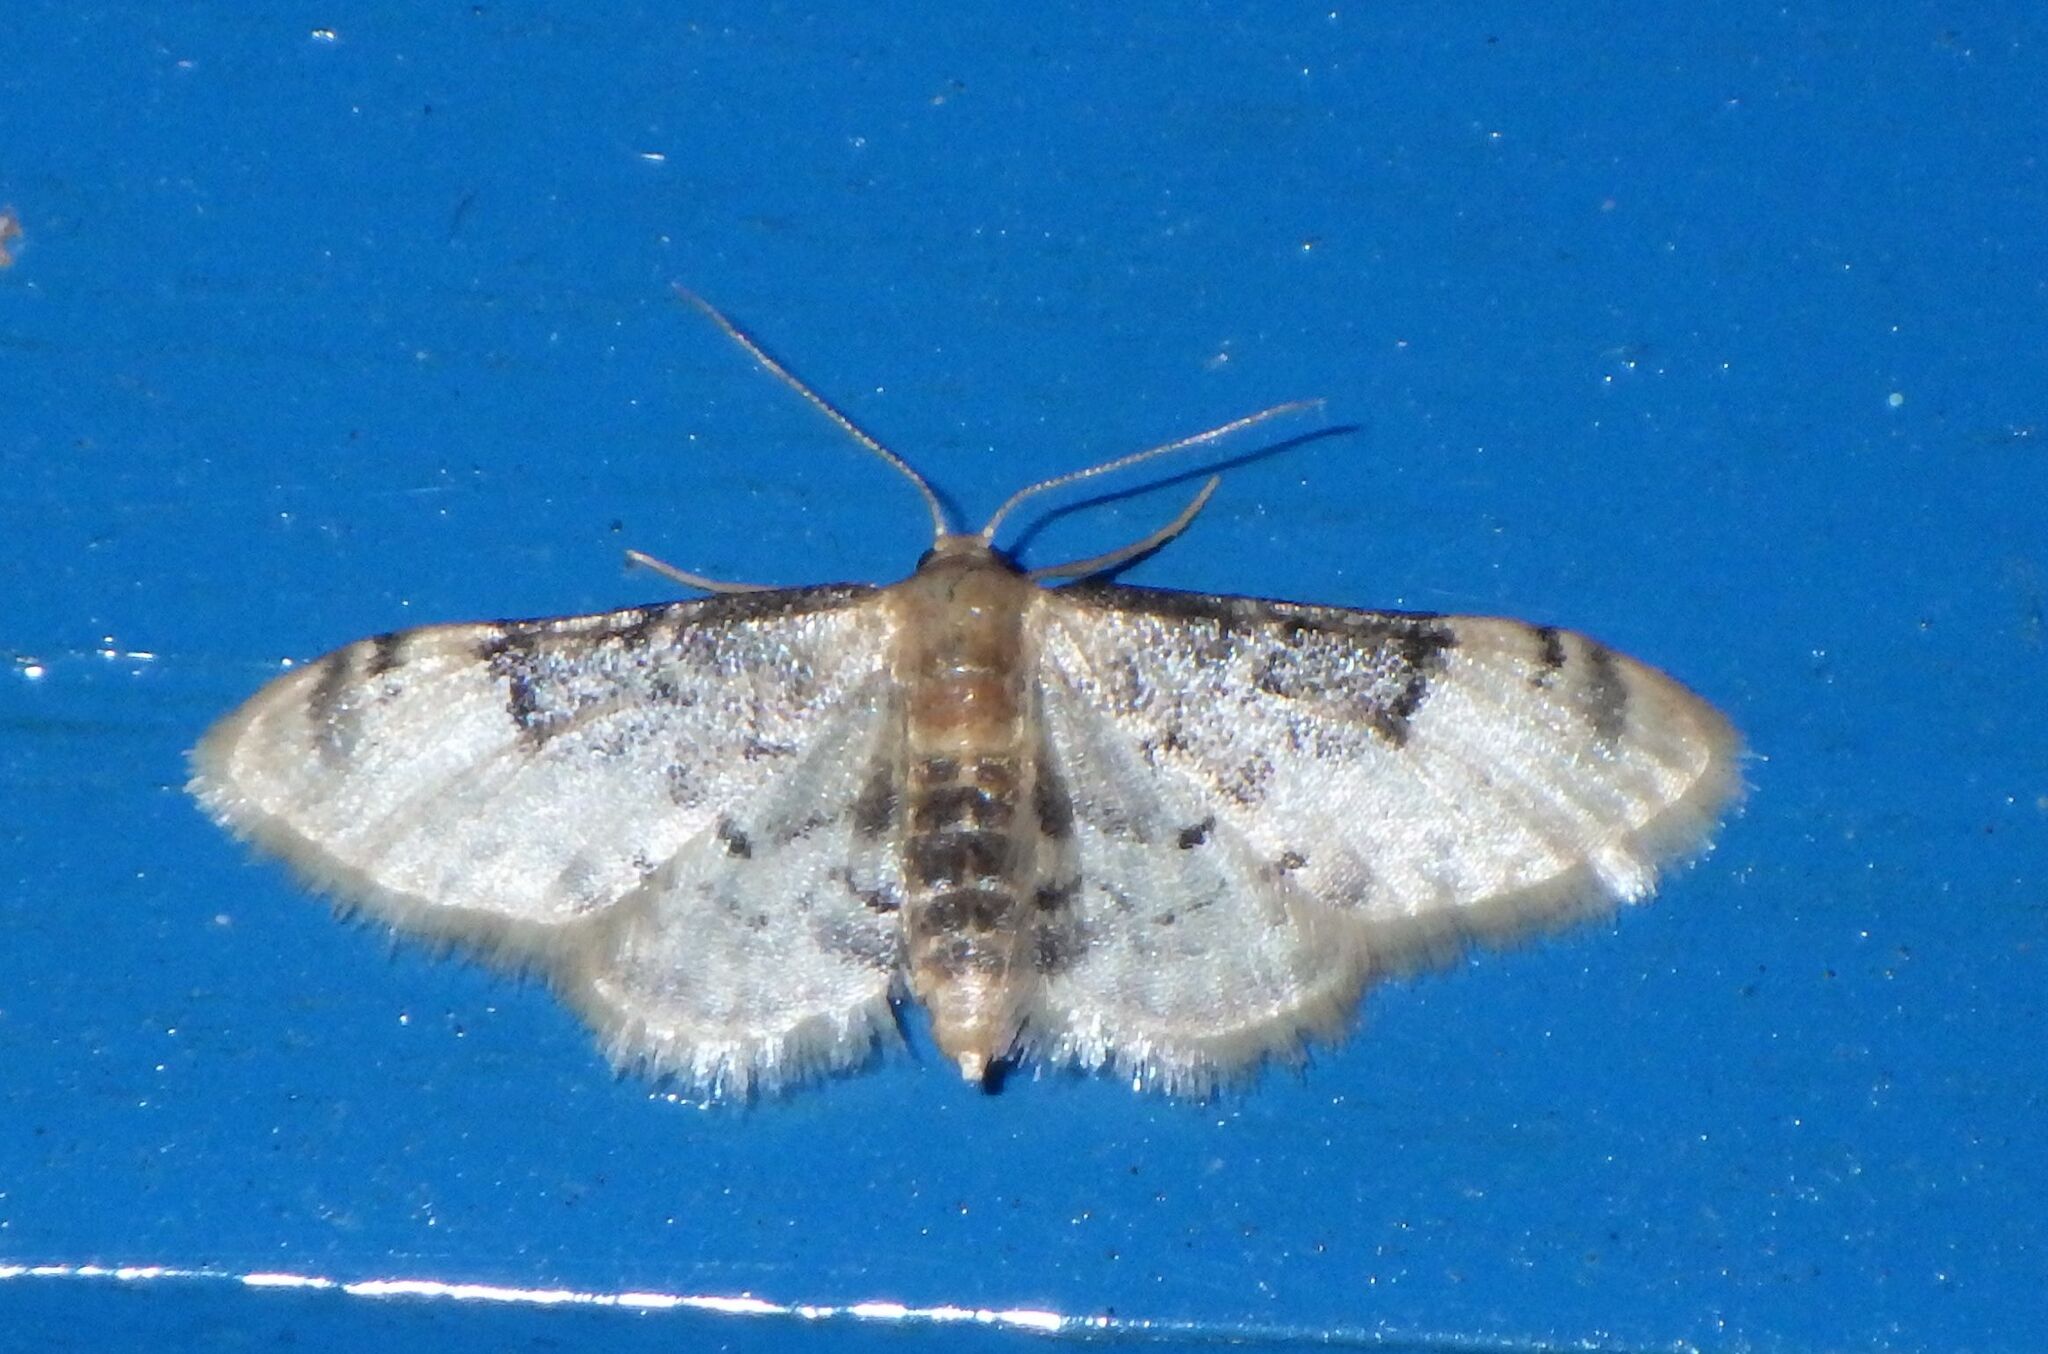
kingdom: Animalia
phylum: Arthropoda
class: Insecta
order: Lepidoptera
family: Geometridae
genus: Idaea
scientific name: Idaea filicata
